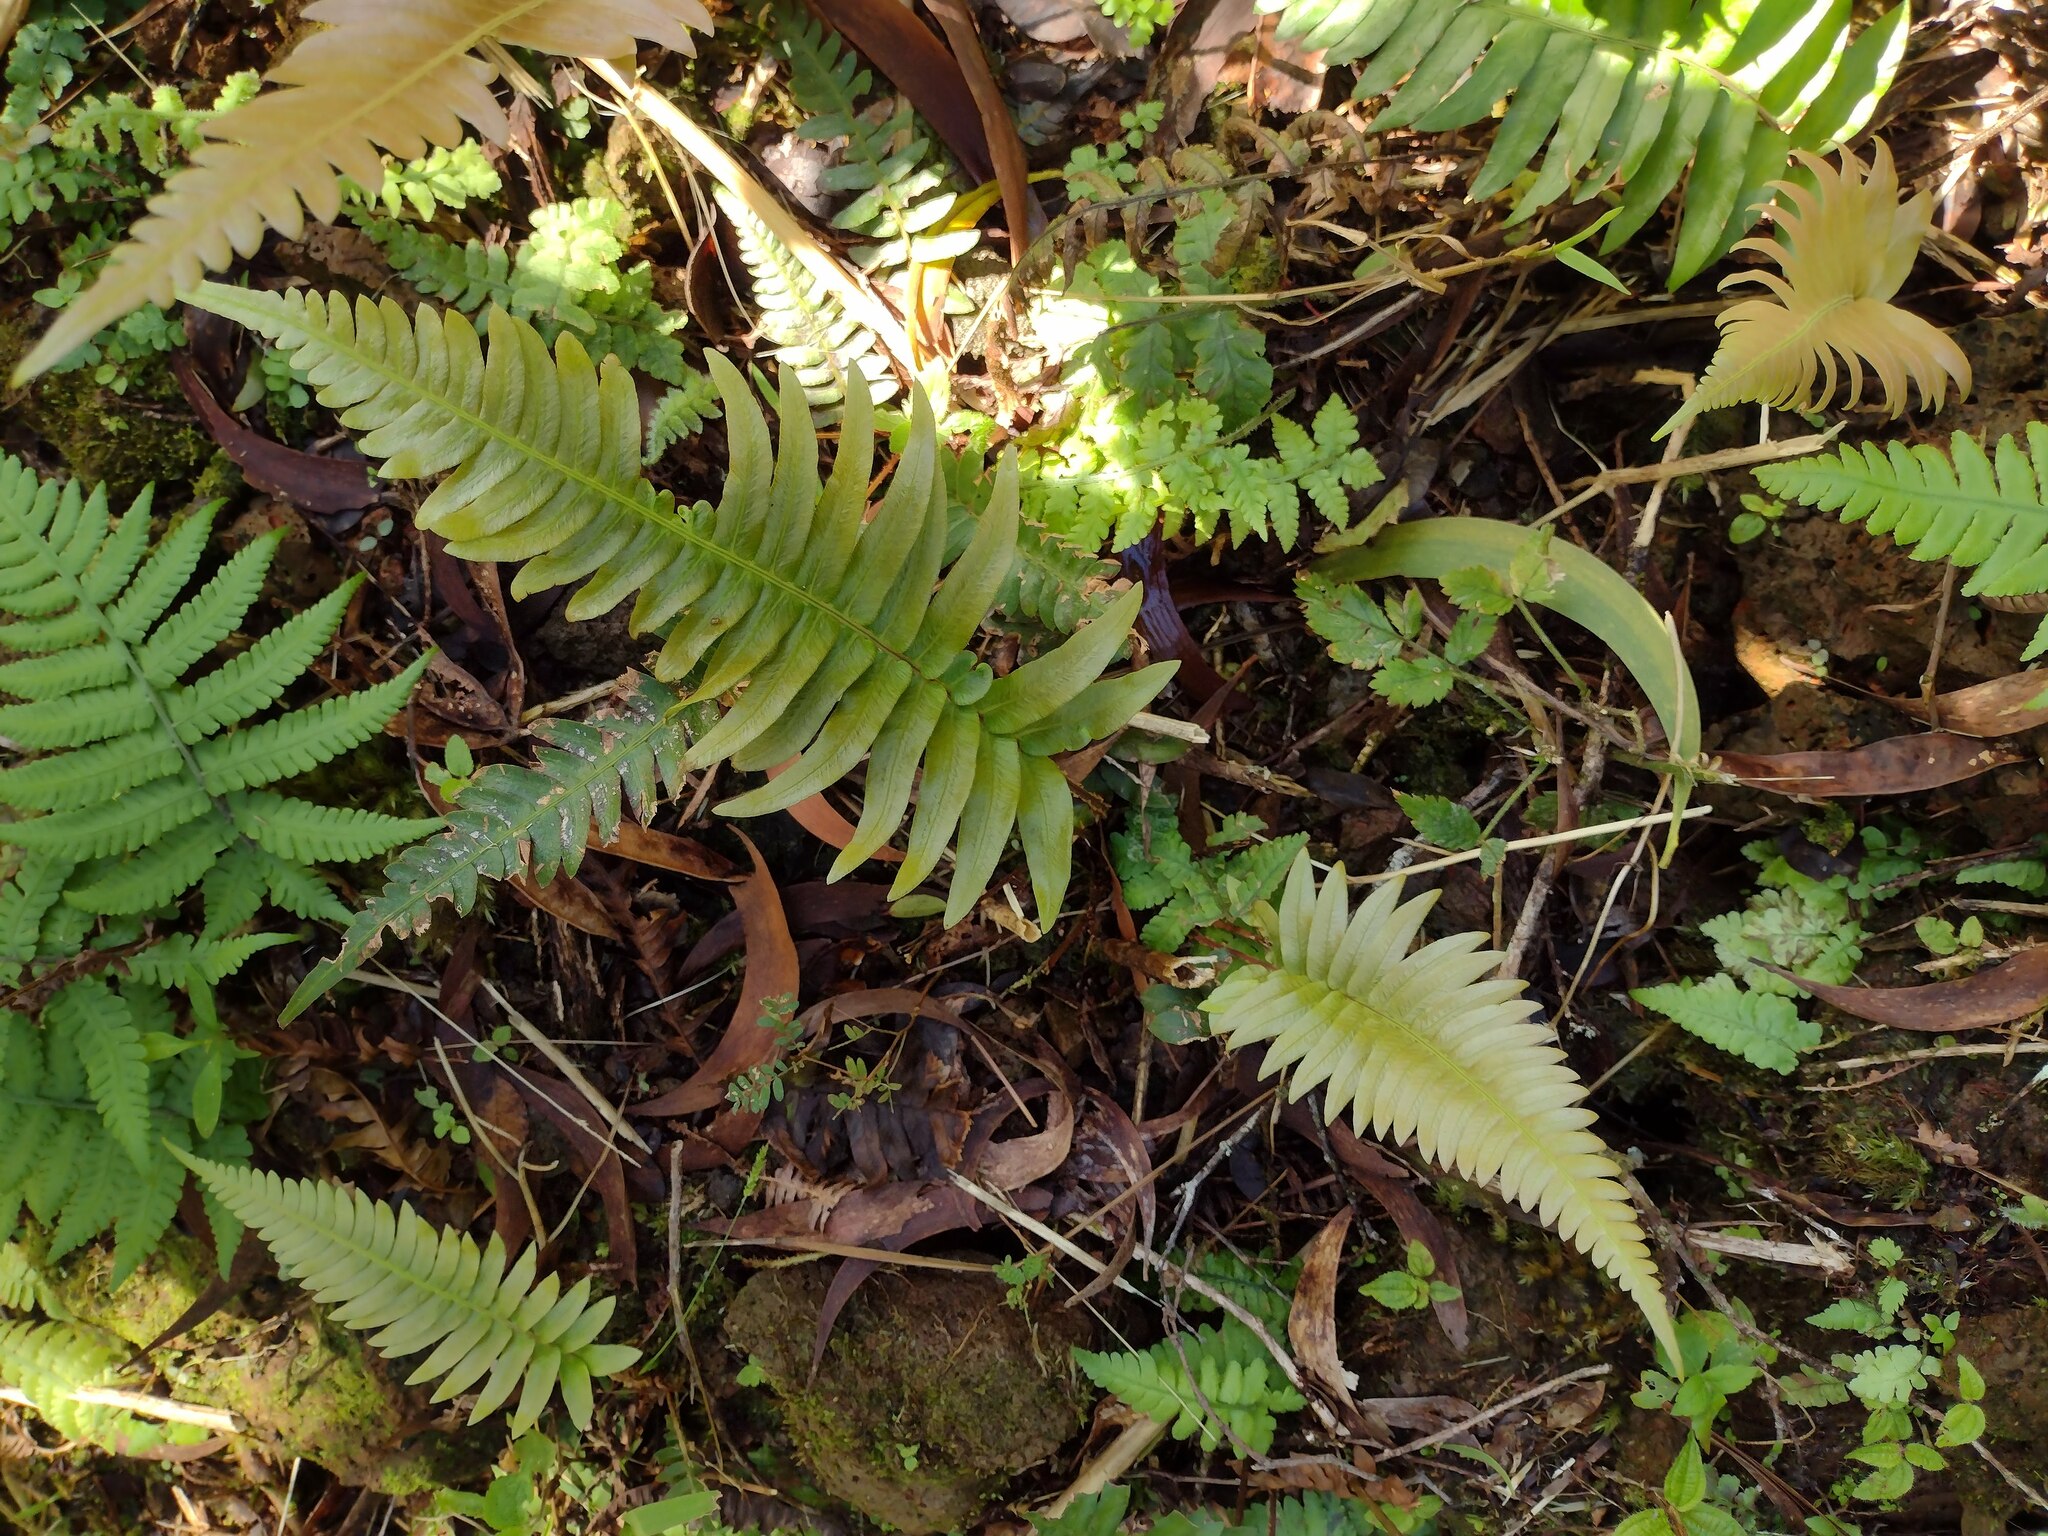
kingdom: Plantae
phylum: Tracheophyta
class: Polypodiopsida
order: Polypodiales
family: Blechnaceae
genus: Blechnum
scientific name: Blechnum appendiculatum
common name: Palm fern
